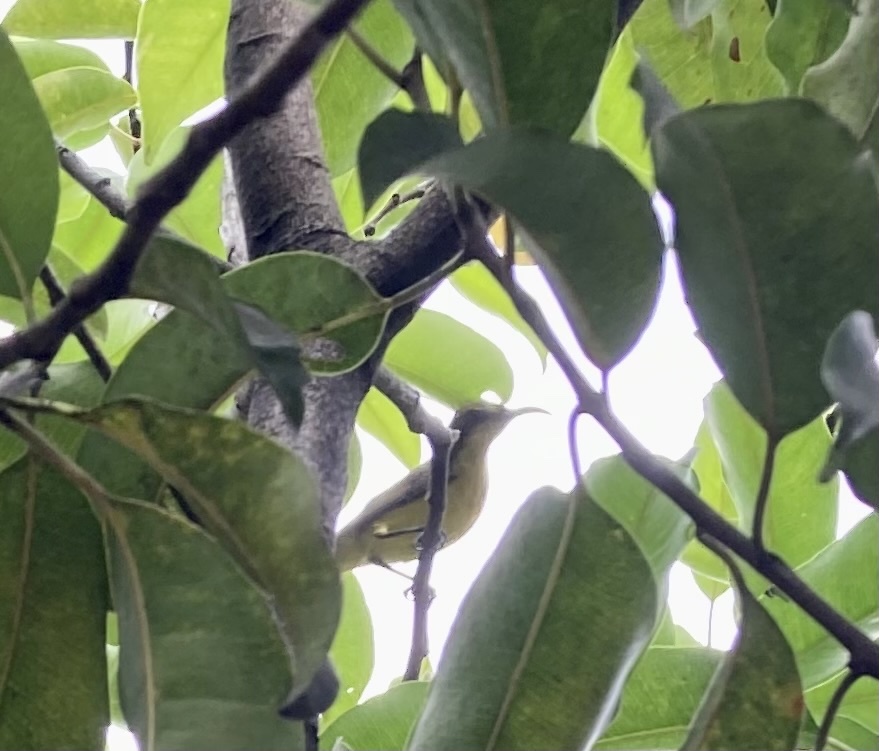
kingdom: Animalia
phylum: Chordata
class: Aves
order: Passeriformes
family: Nectariniidae
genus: Cinnyris
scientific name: Cinnyris
